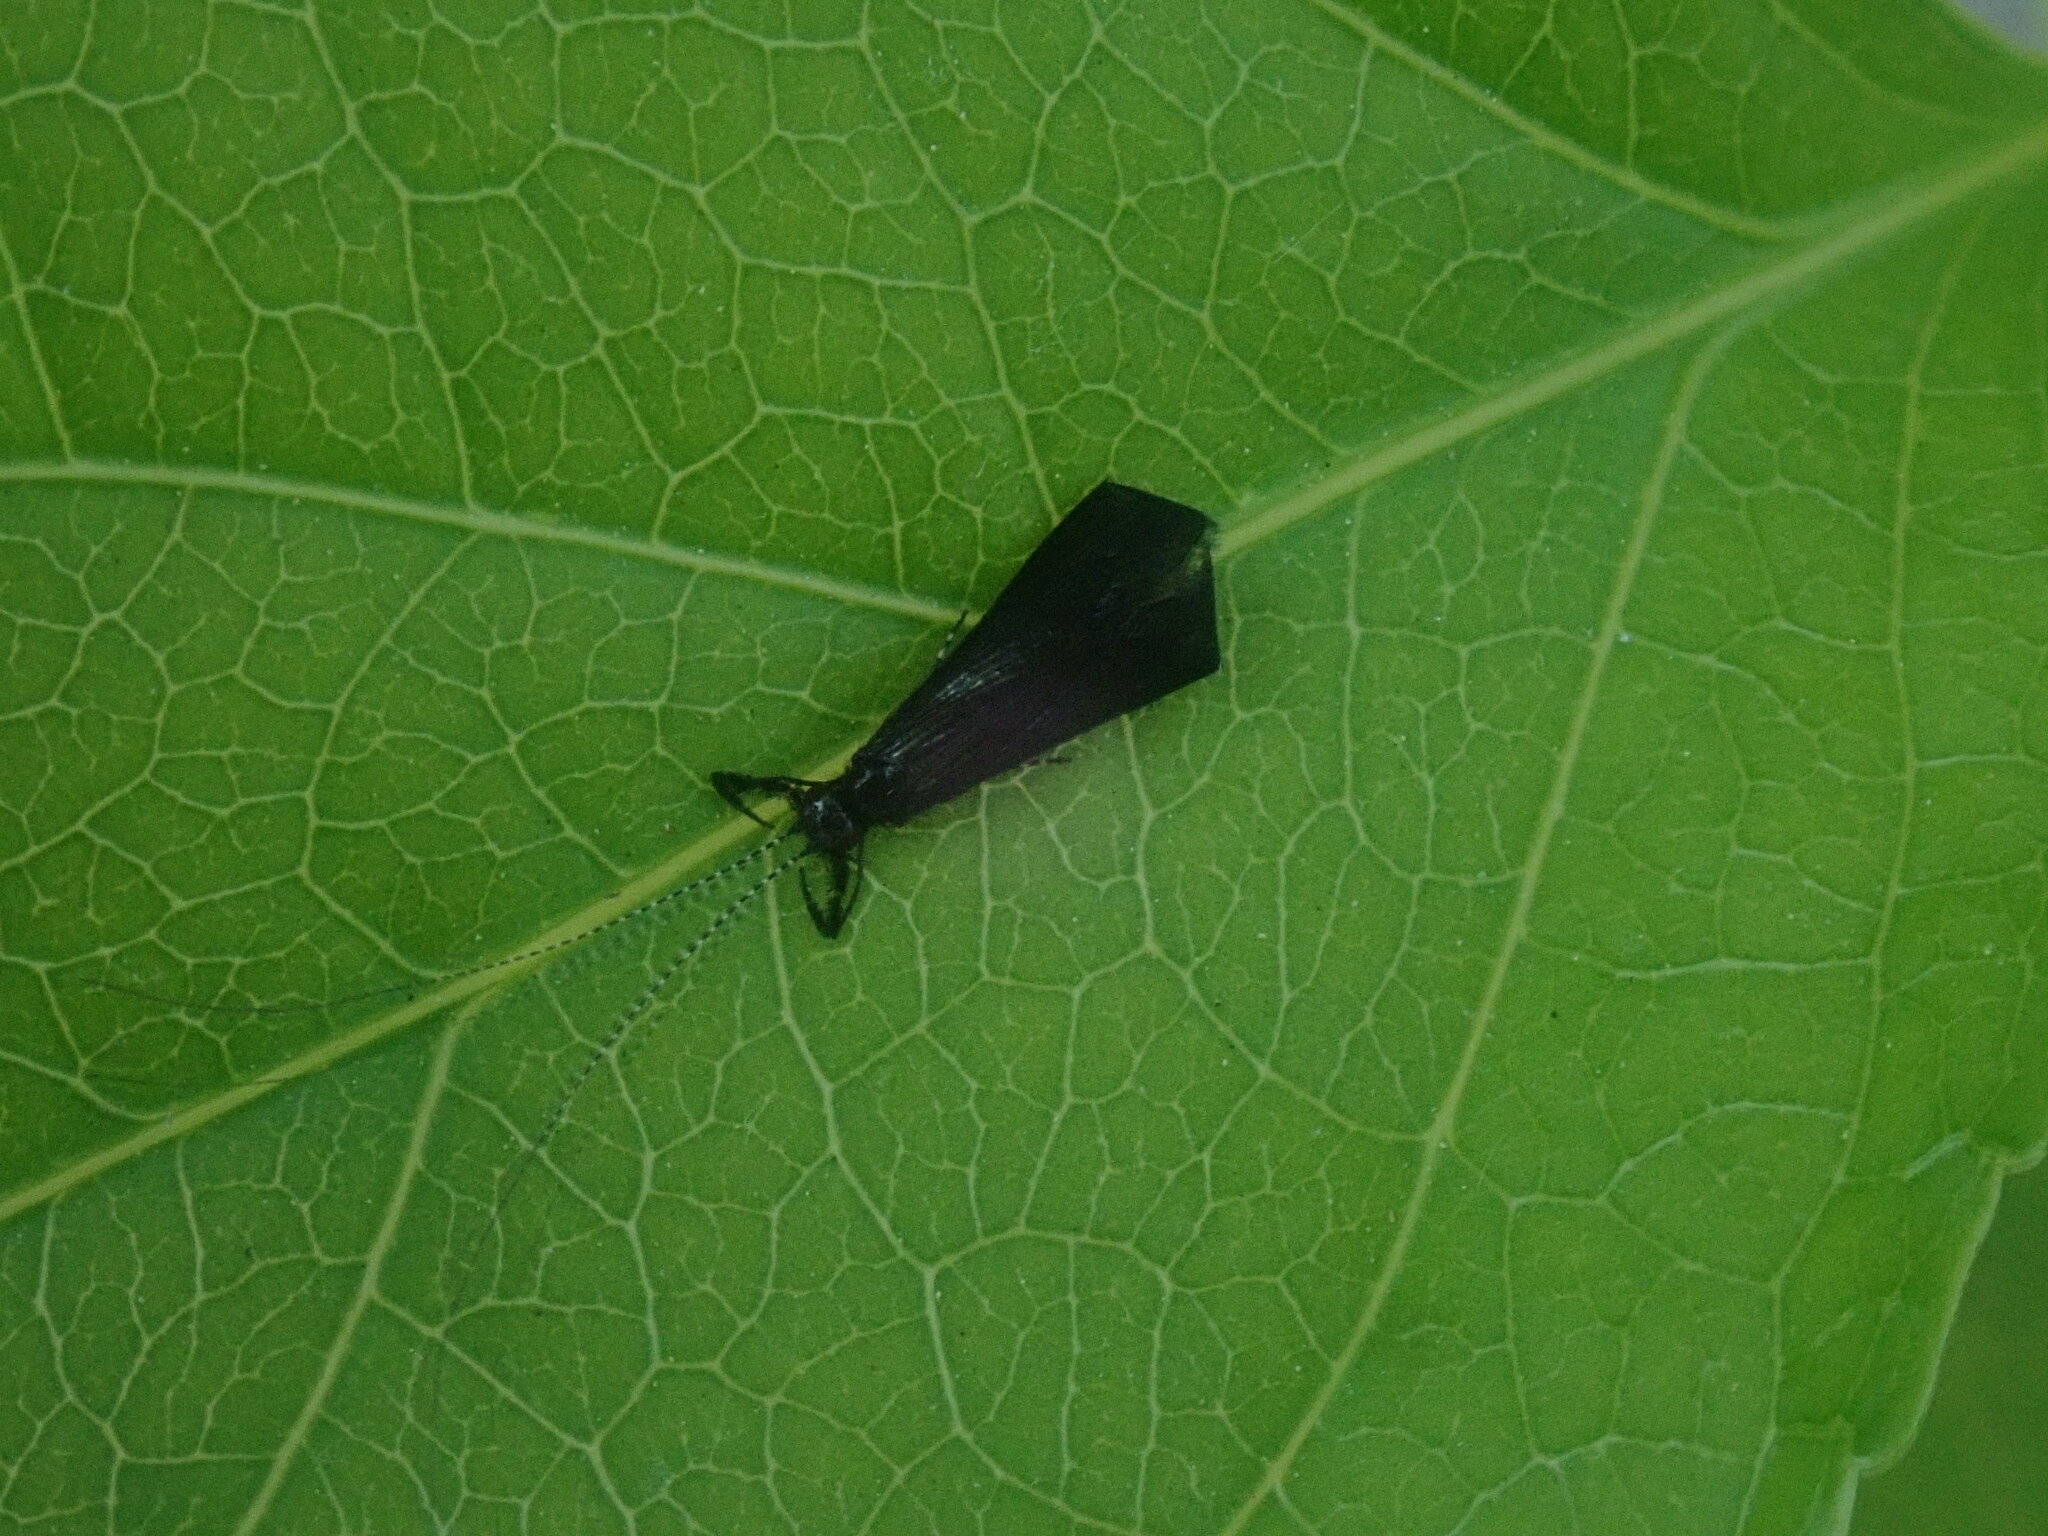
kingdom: Animalia
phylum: Arthropoda
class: Insecta
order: Trichoptera
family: Leptoceridae
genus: Mystacides
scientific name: Mystacides sepulchralis
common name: Black dancer caddisfly
